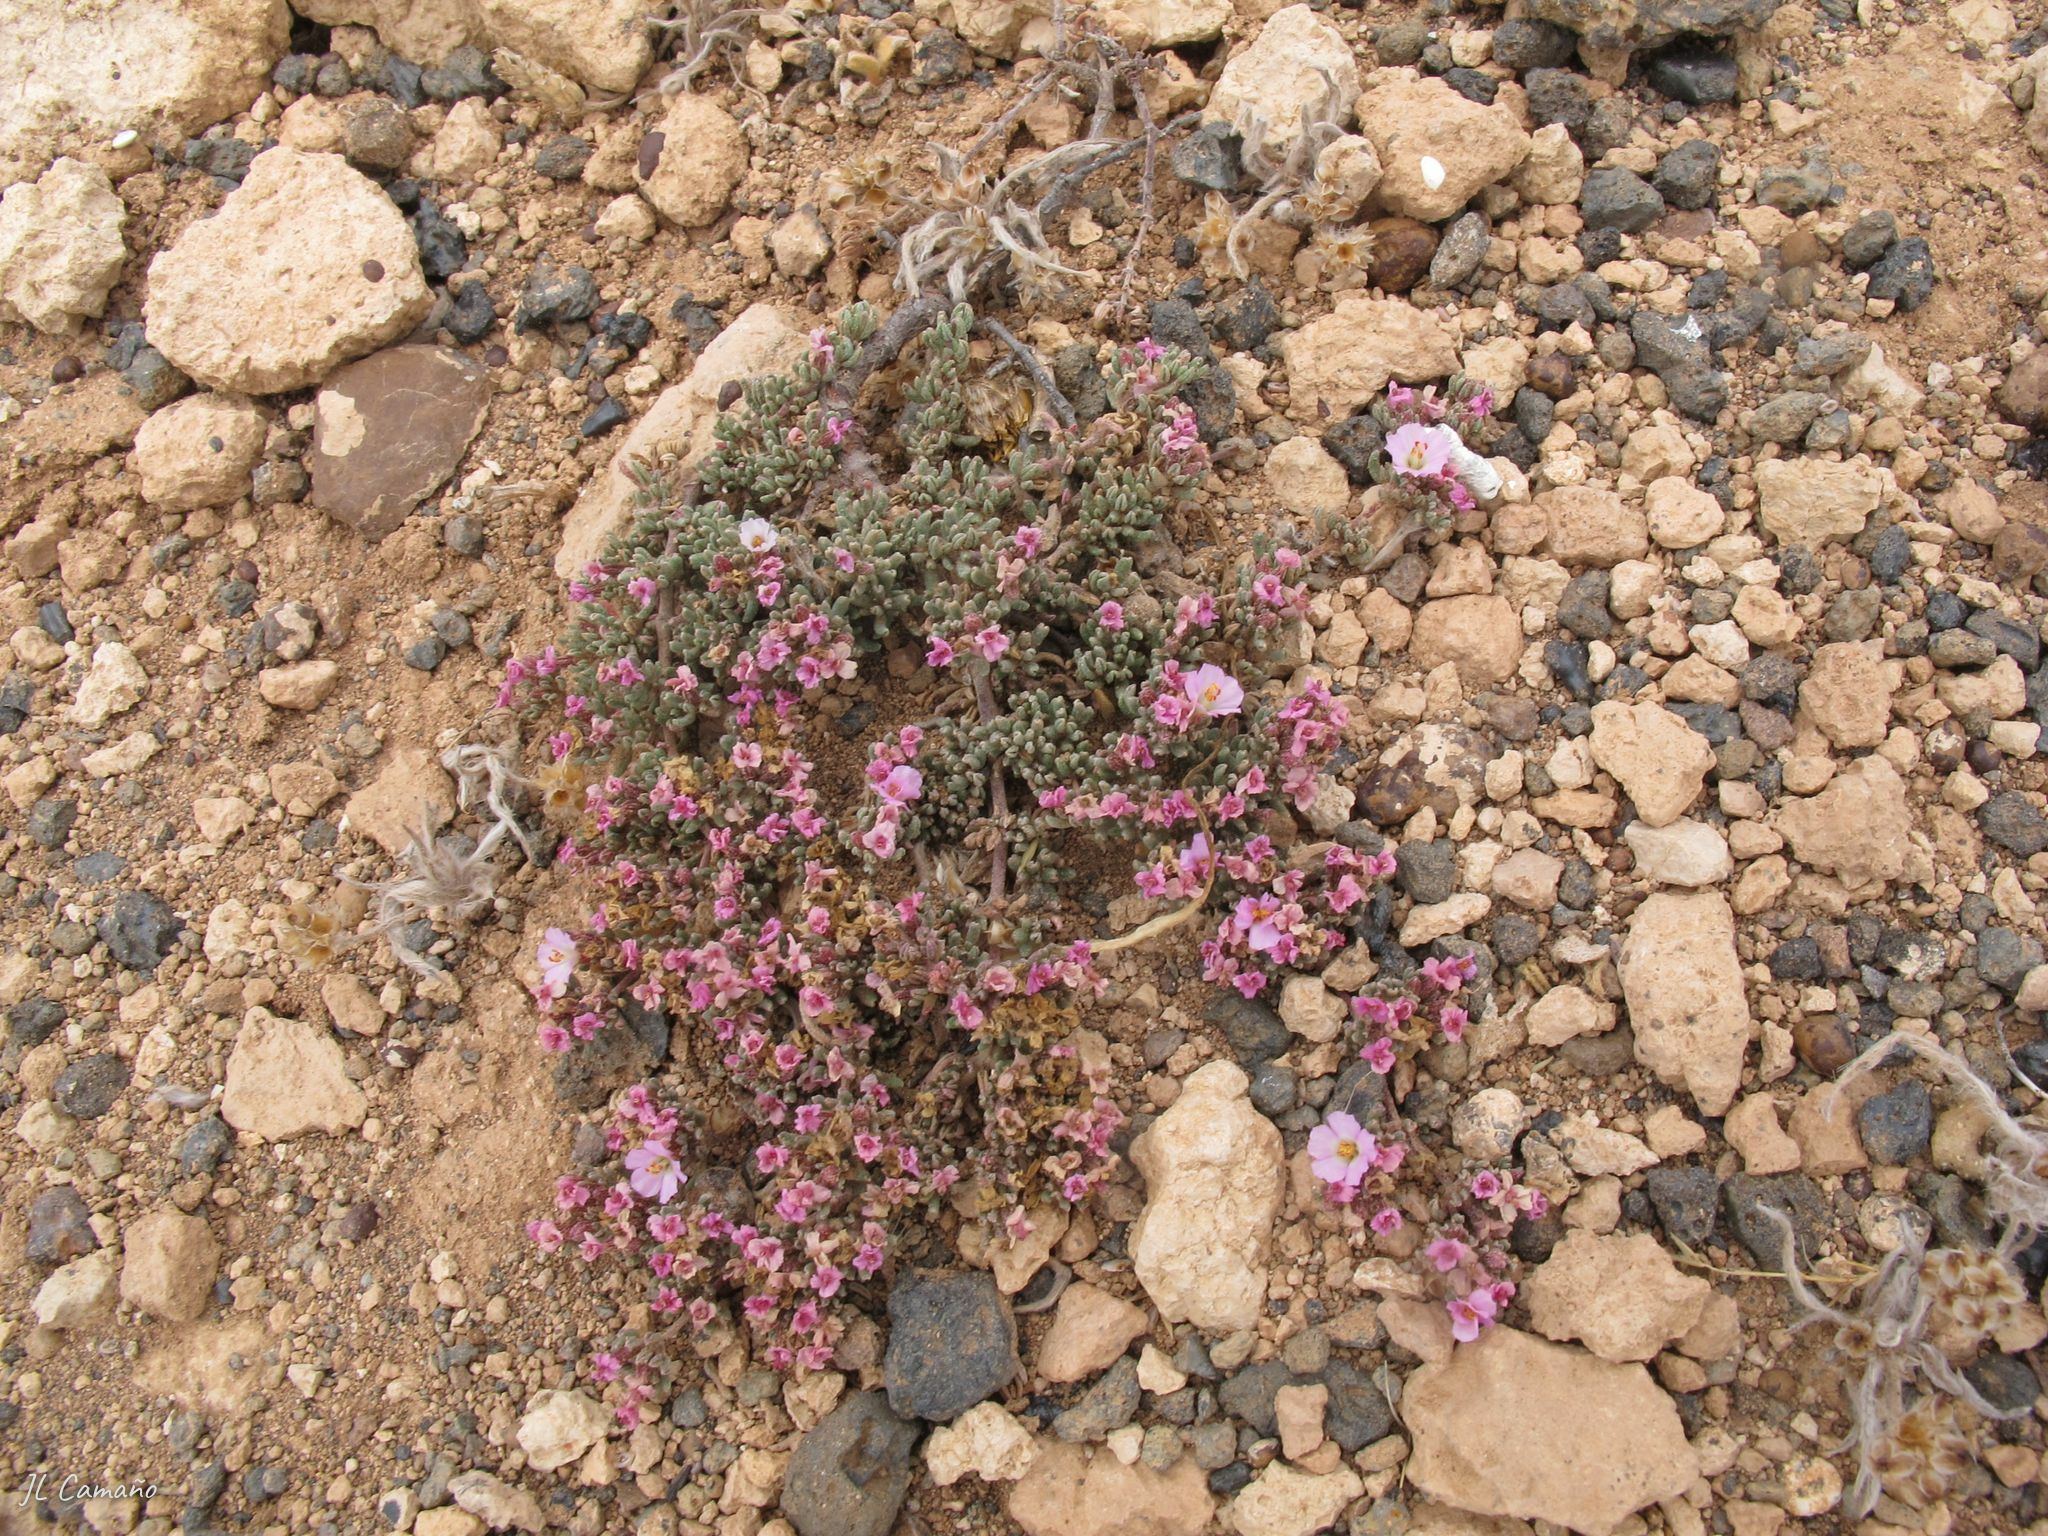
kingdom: Plantae
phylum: Tracheophyta
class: Magnoliopsida
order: Caryophyllales
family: Frankeniaceae
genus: Frankenia
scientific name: Frankenia pulverulenta
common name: European seaheath
